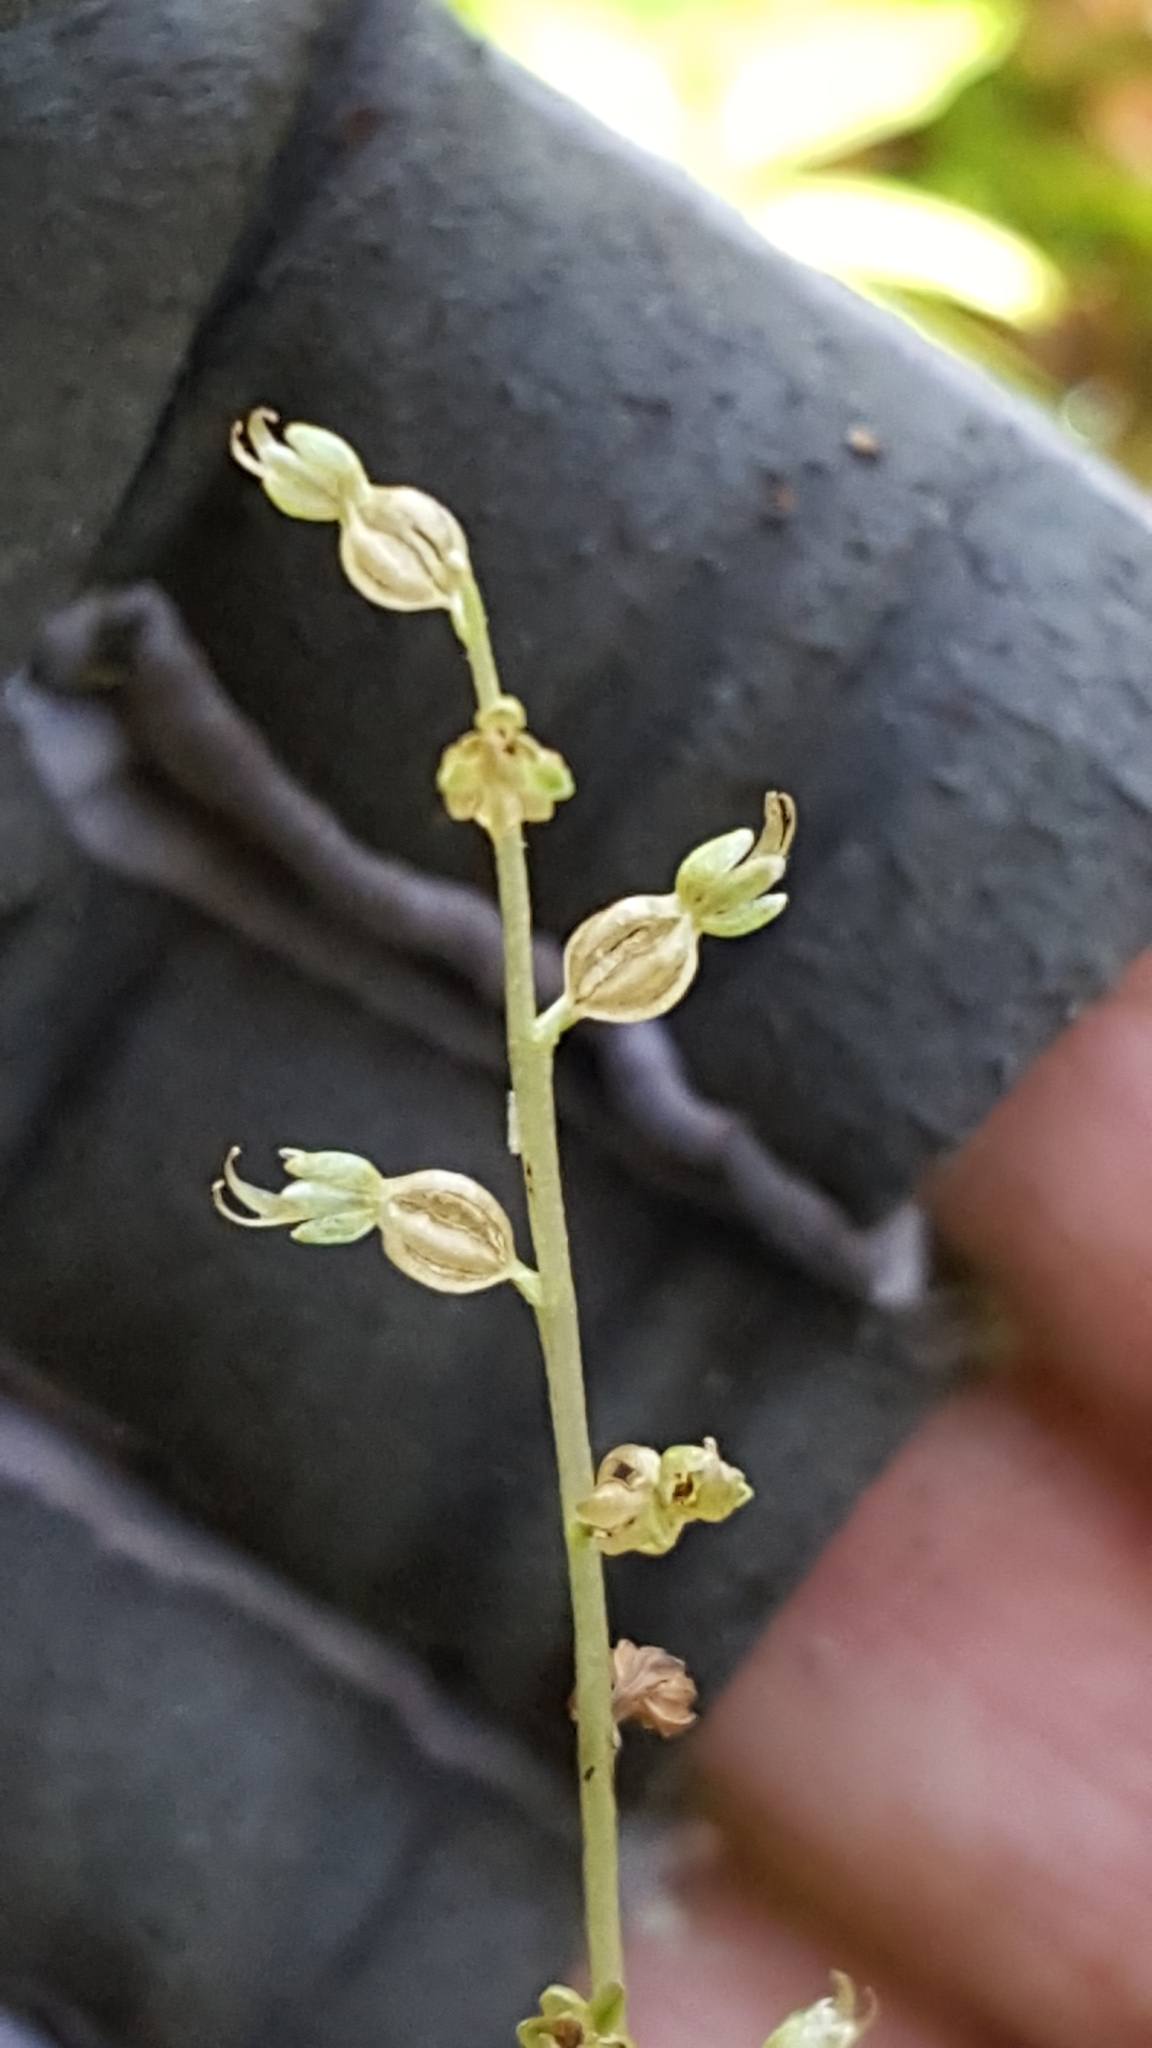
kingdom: Plantae
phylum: Tracheophyta
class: Liliopsida
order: Asparagales
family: Orchidaceae
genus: Neottia
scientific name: Neottia cordata
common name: Lesser twayblade
